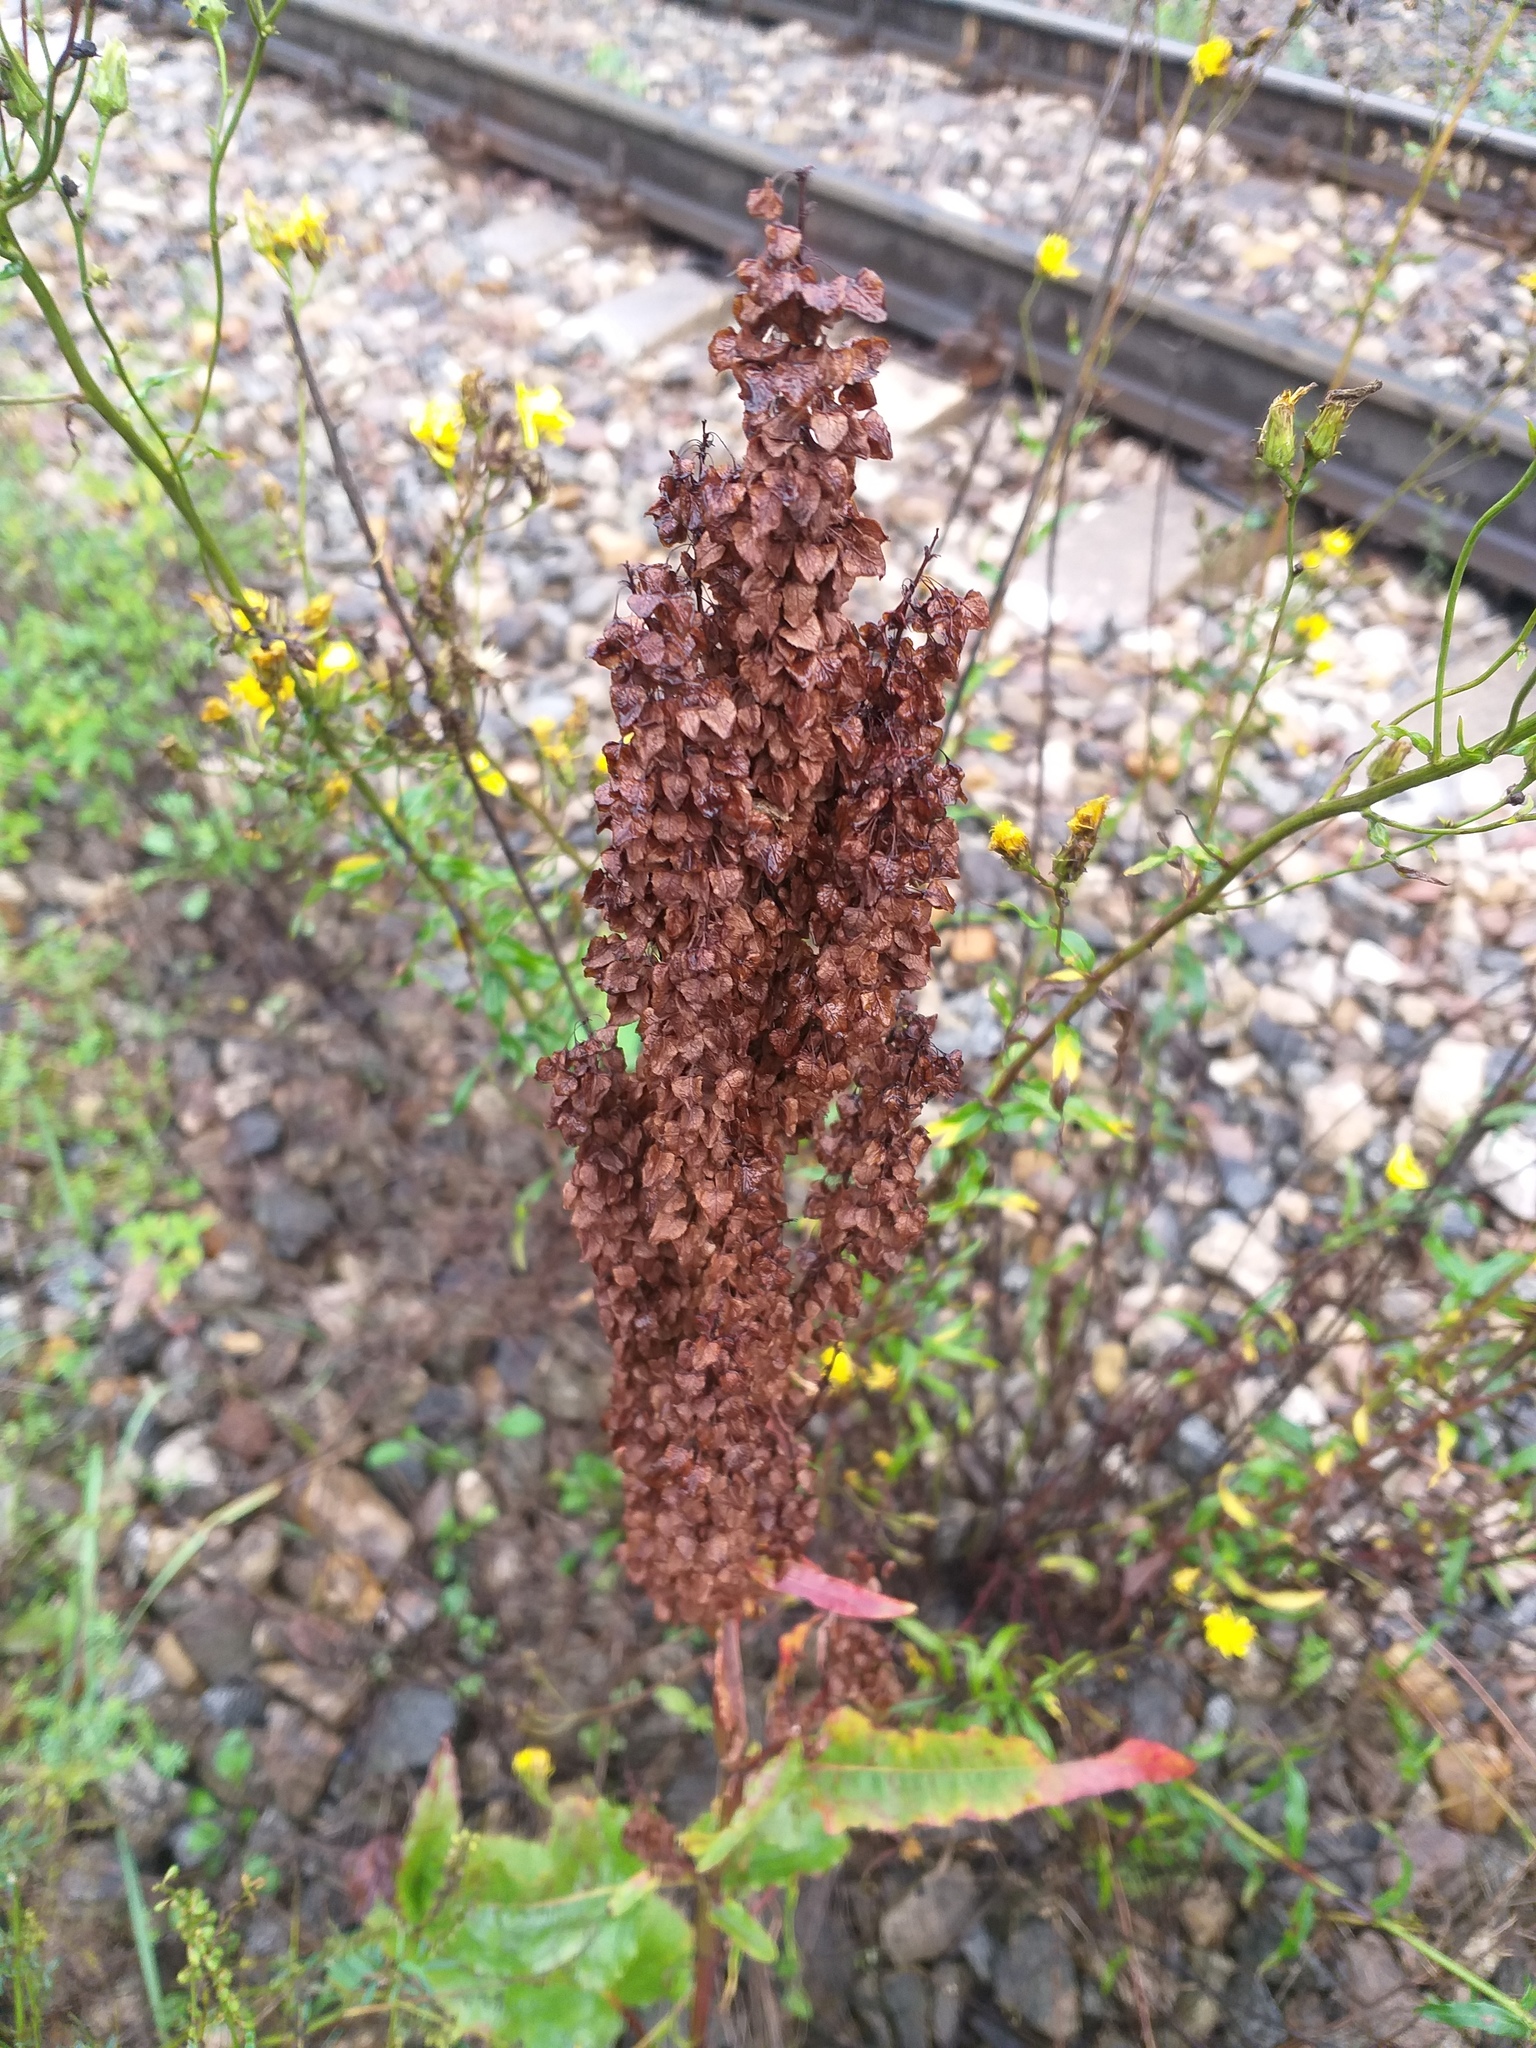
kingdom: Plantae
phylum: Tracheophyta
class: Magnoliopsida
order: Caryophyllales
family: Polygonaceae
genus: Rumex
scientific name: Rumex aquaticus
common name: Scottish dock
